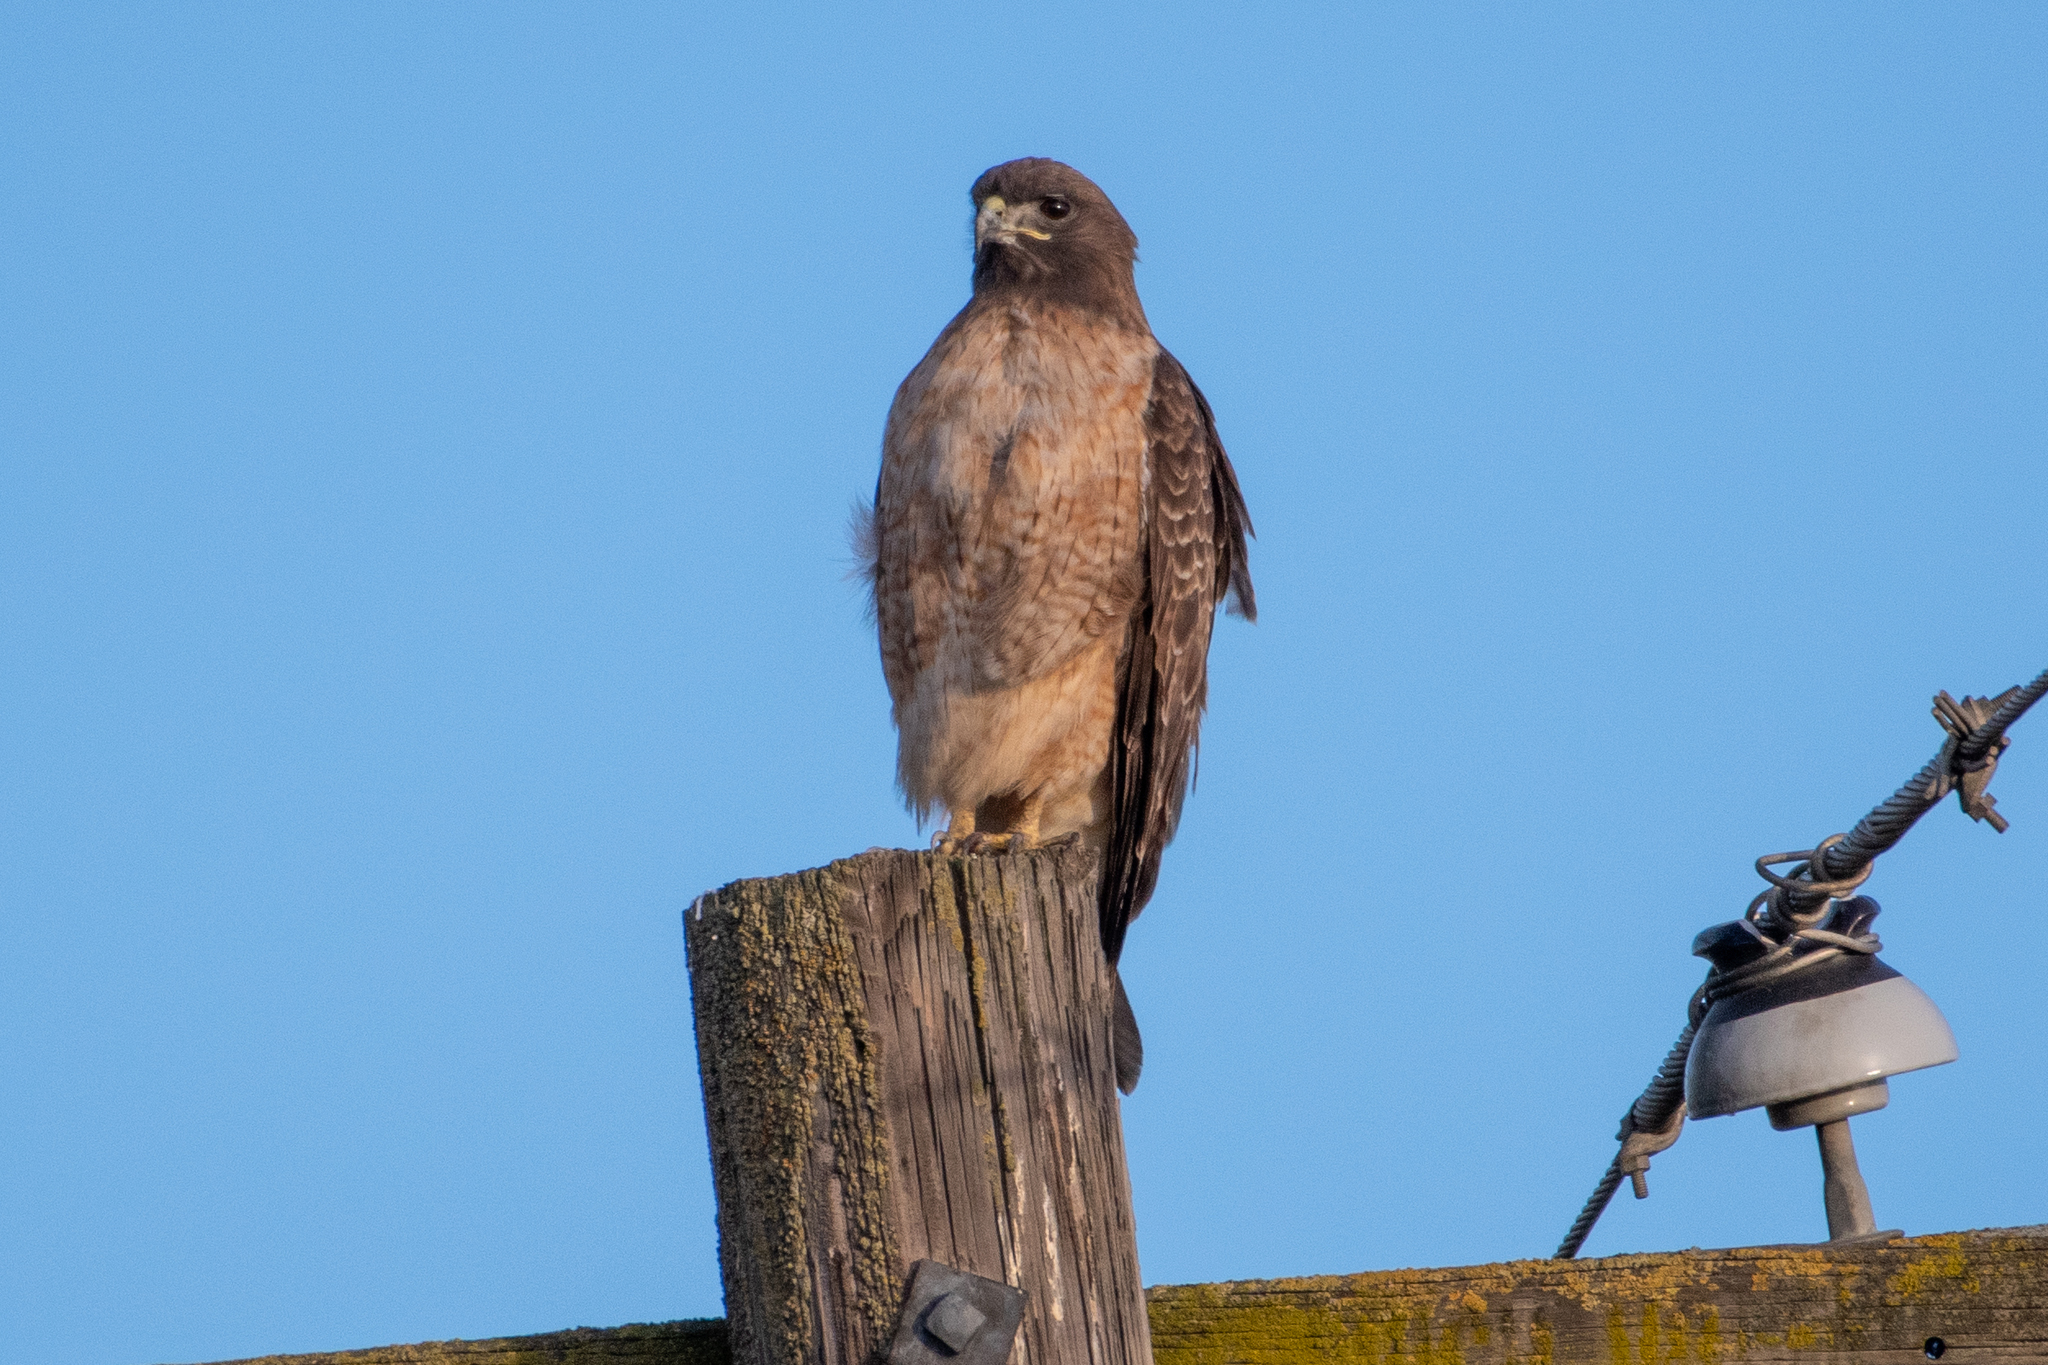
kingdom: Animalia
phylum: Chordata
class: Aves
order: Accipitriformes
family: Accipitridae
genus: Buteo
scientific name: Buteo jamaicensis
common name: Red-tailed hawk
